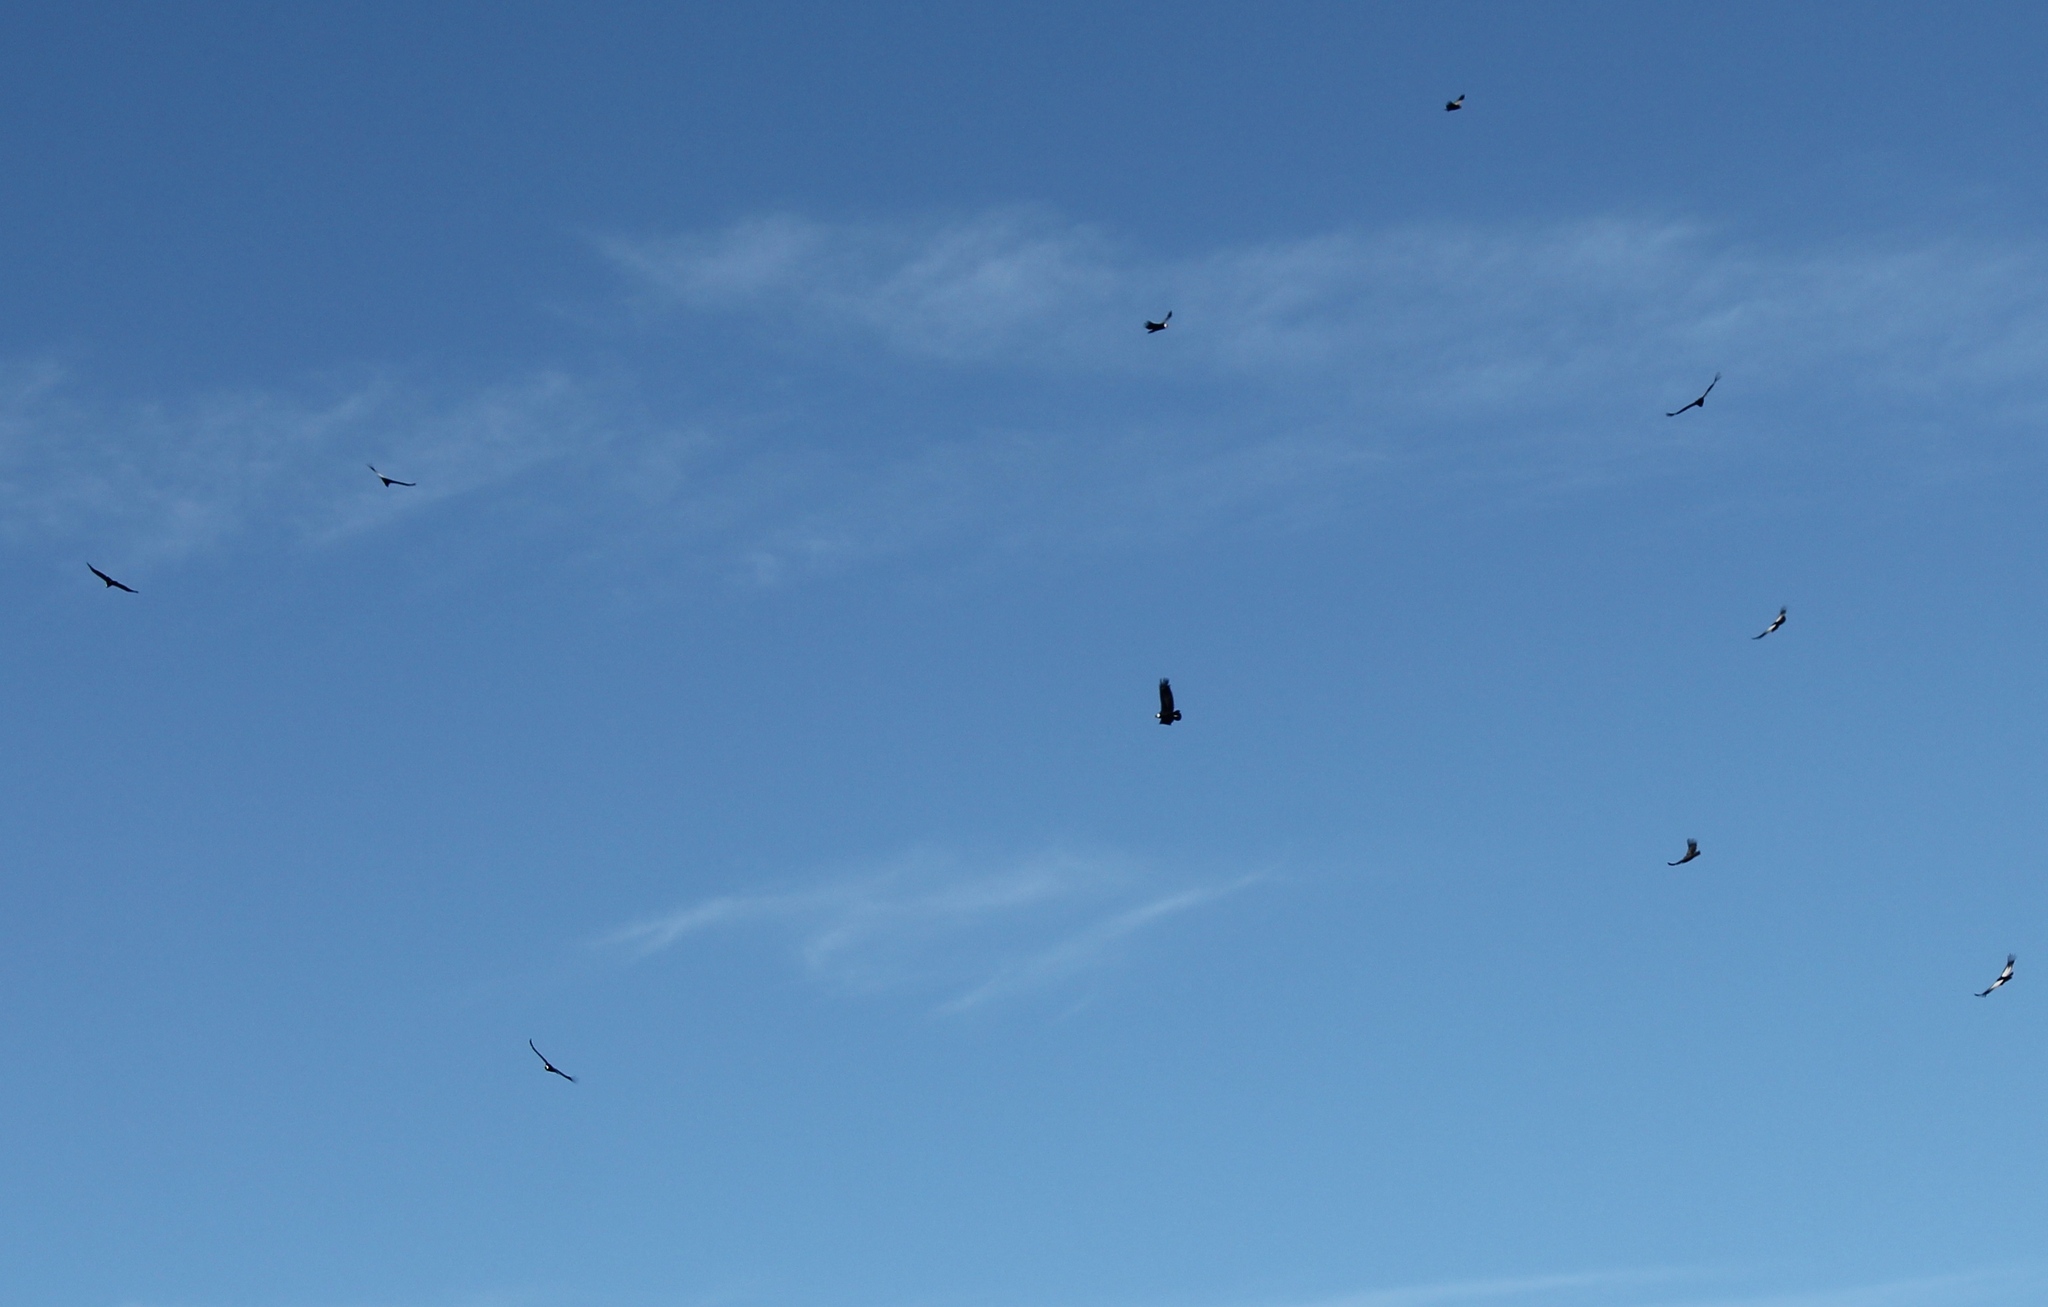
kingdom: Animalia
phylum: Chordata
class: Aves
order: Accipitriformes
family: Cathartidae
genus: Vultur
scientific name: Vultur gryphus
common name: Andean condor
